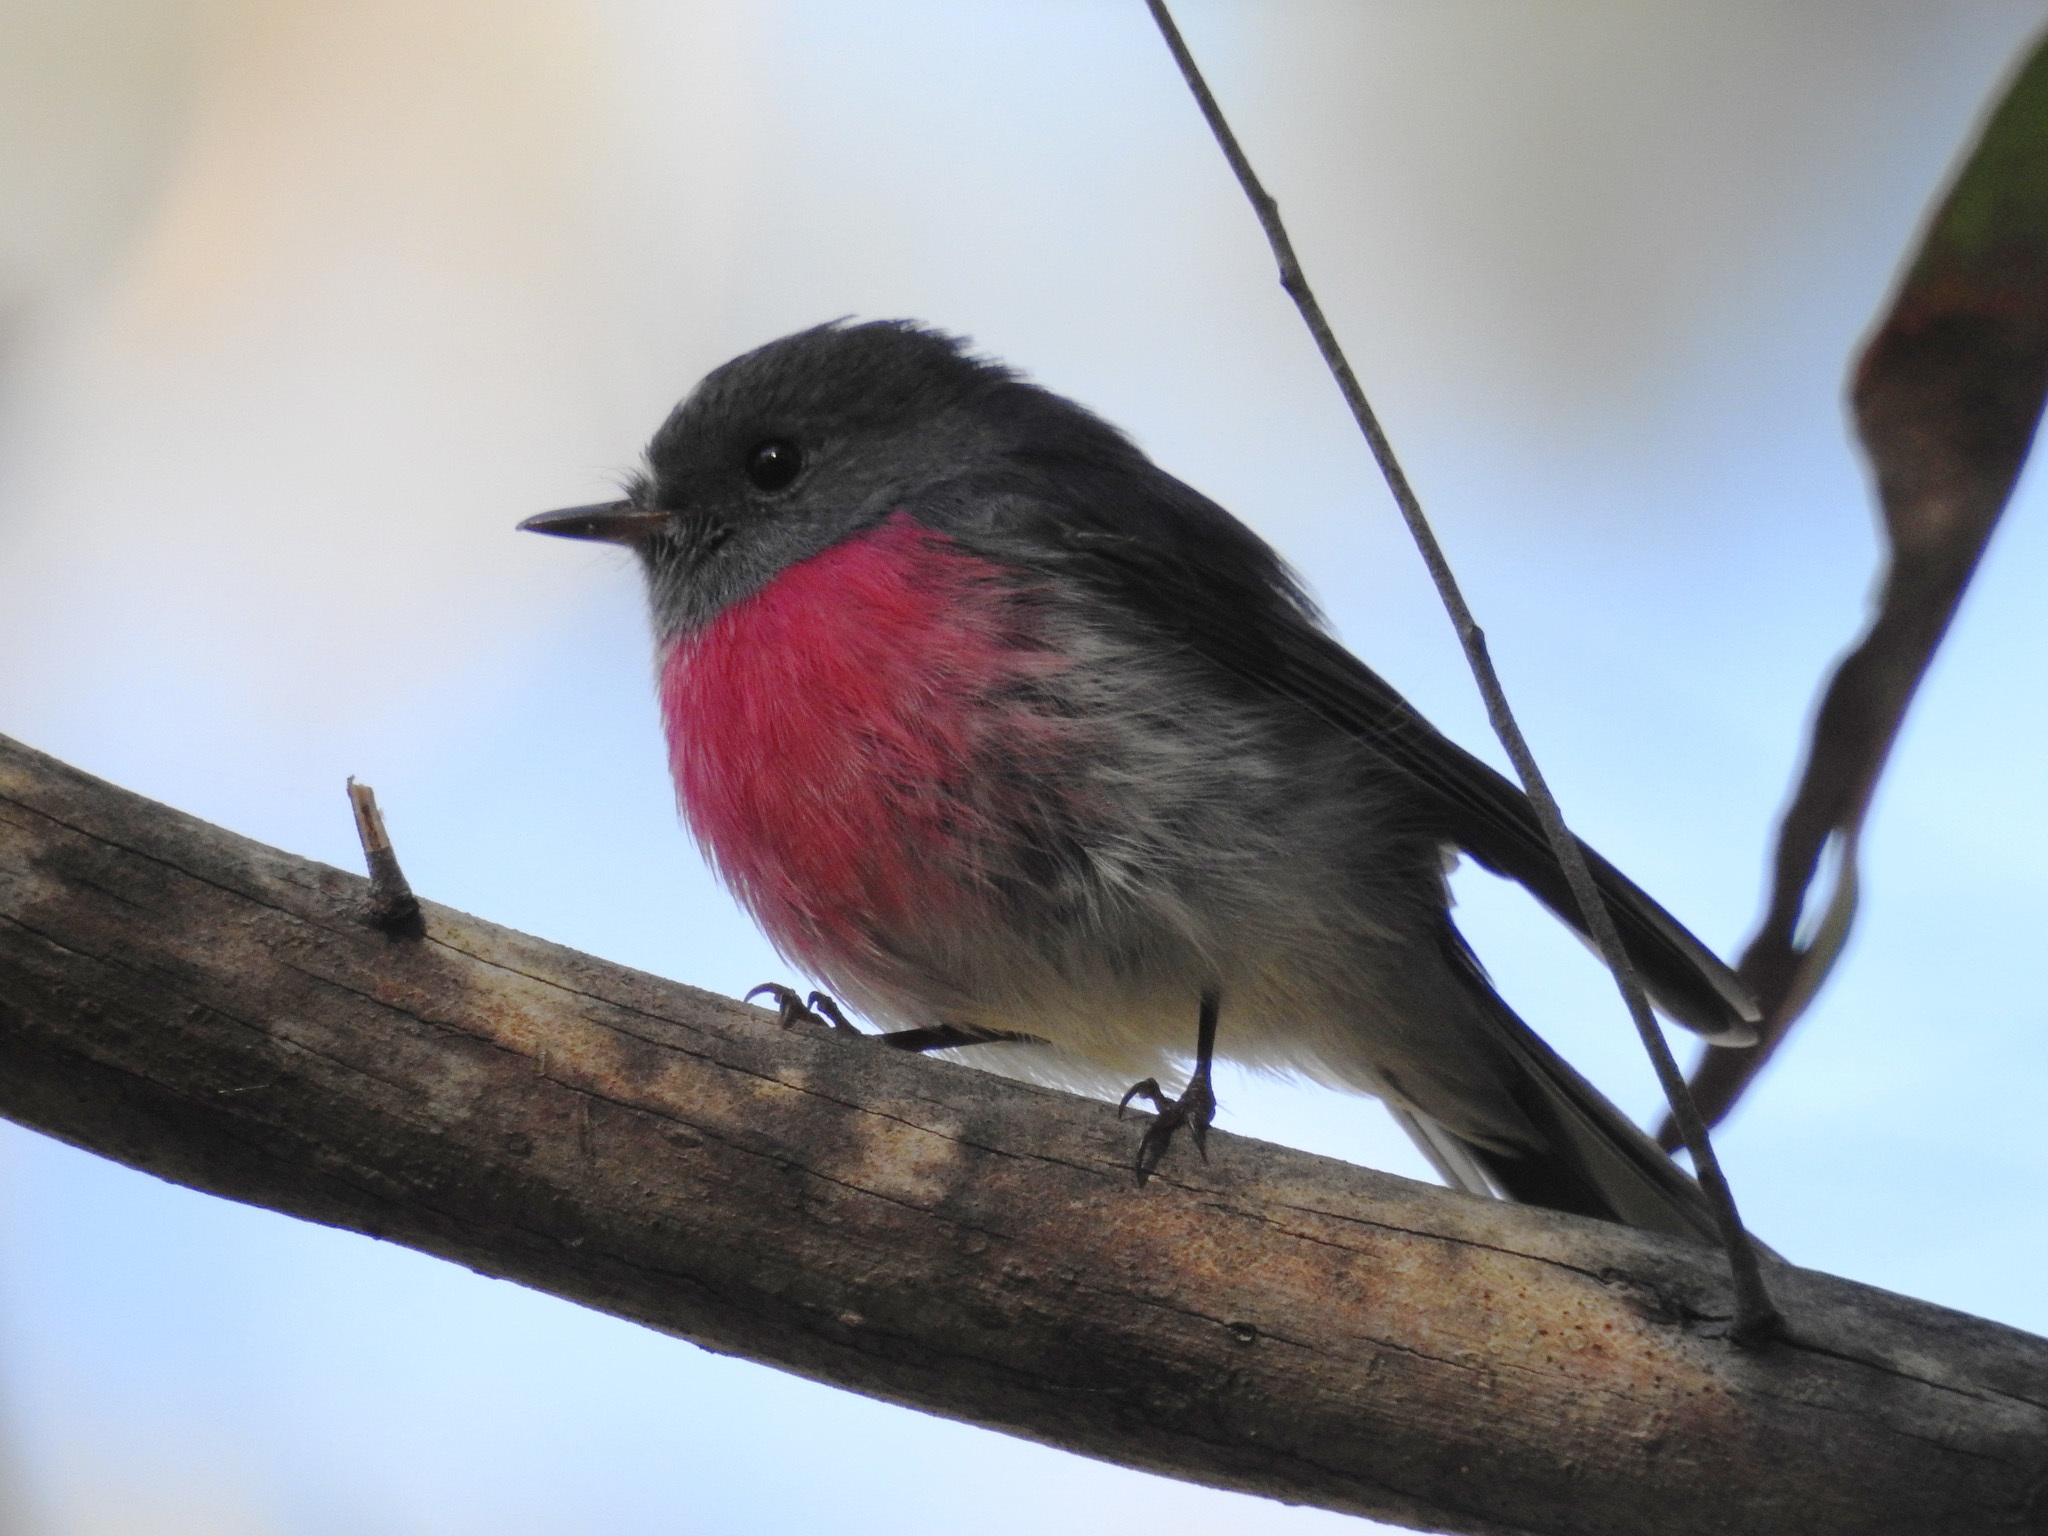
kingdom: Animalia
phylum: Chordata
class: Aves
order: Passeriformes
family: Petroicidae
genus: Petroica
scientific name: Petroica rosea
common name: Rose robin
